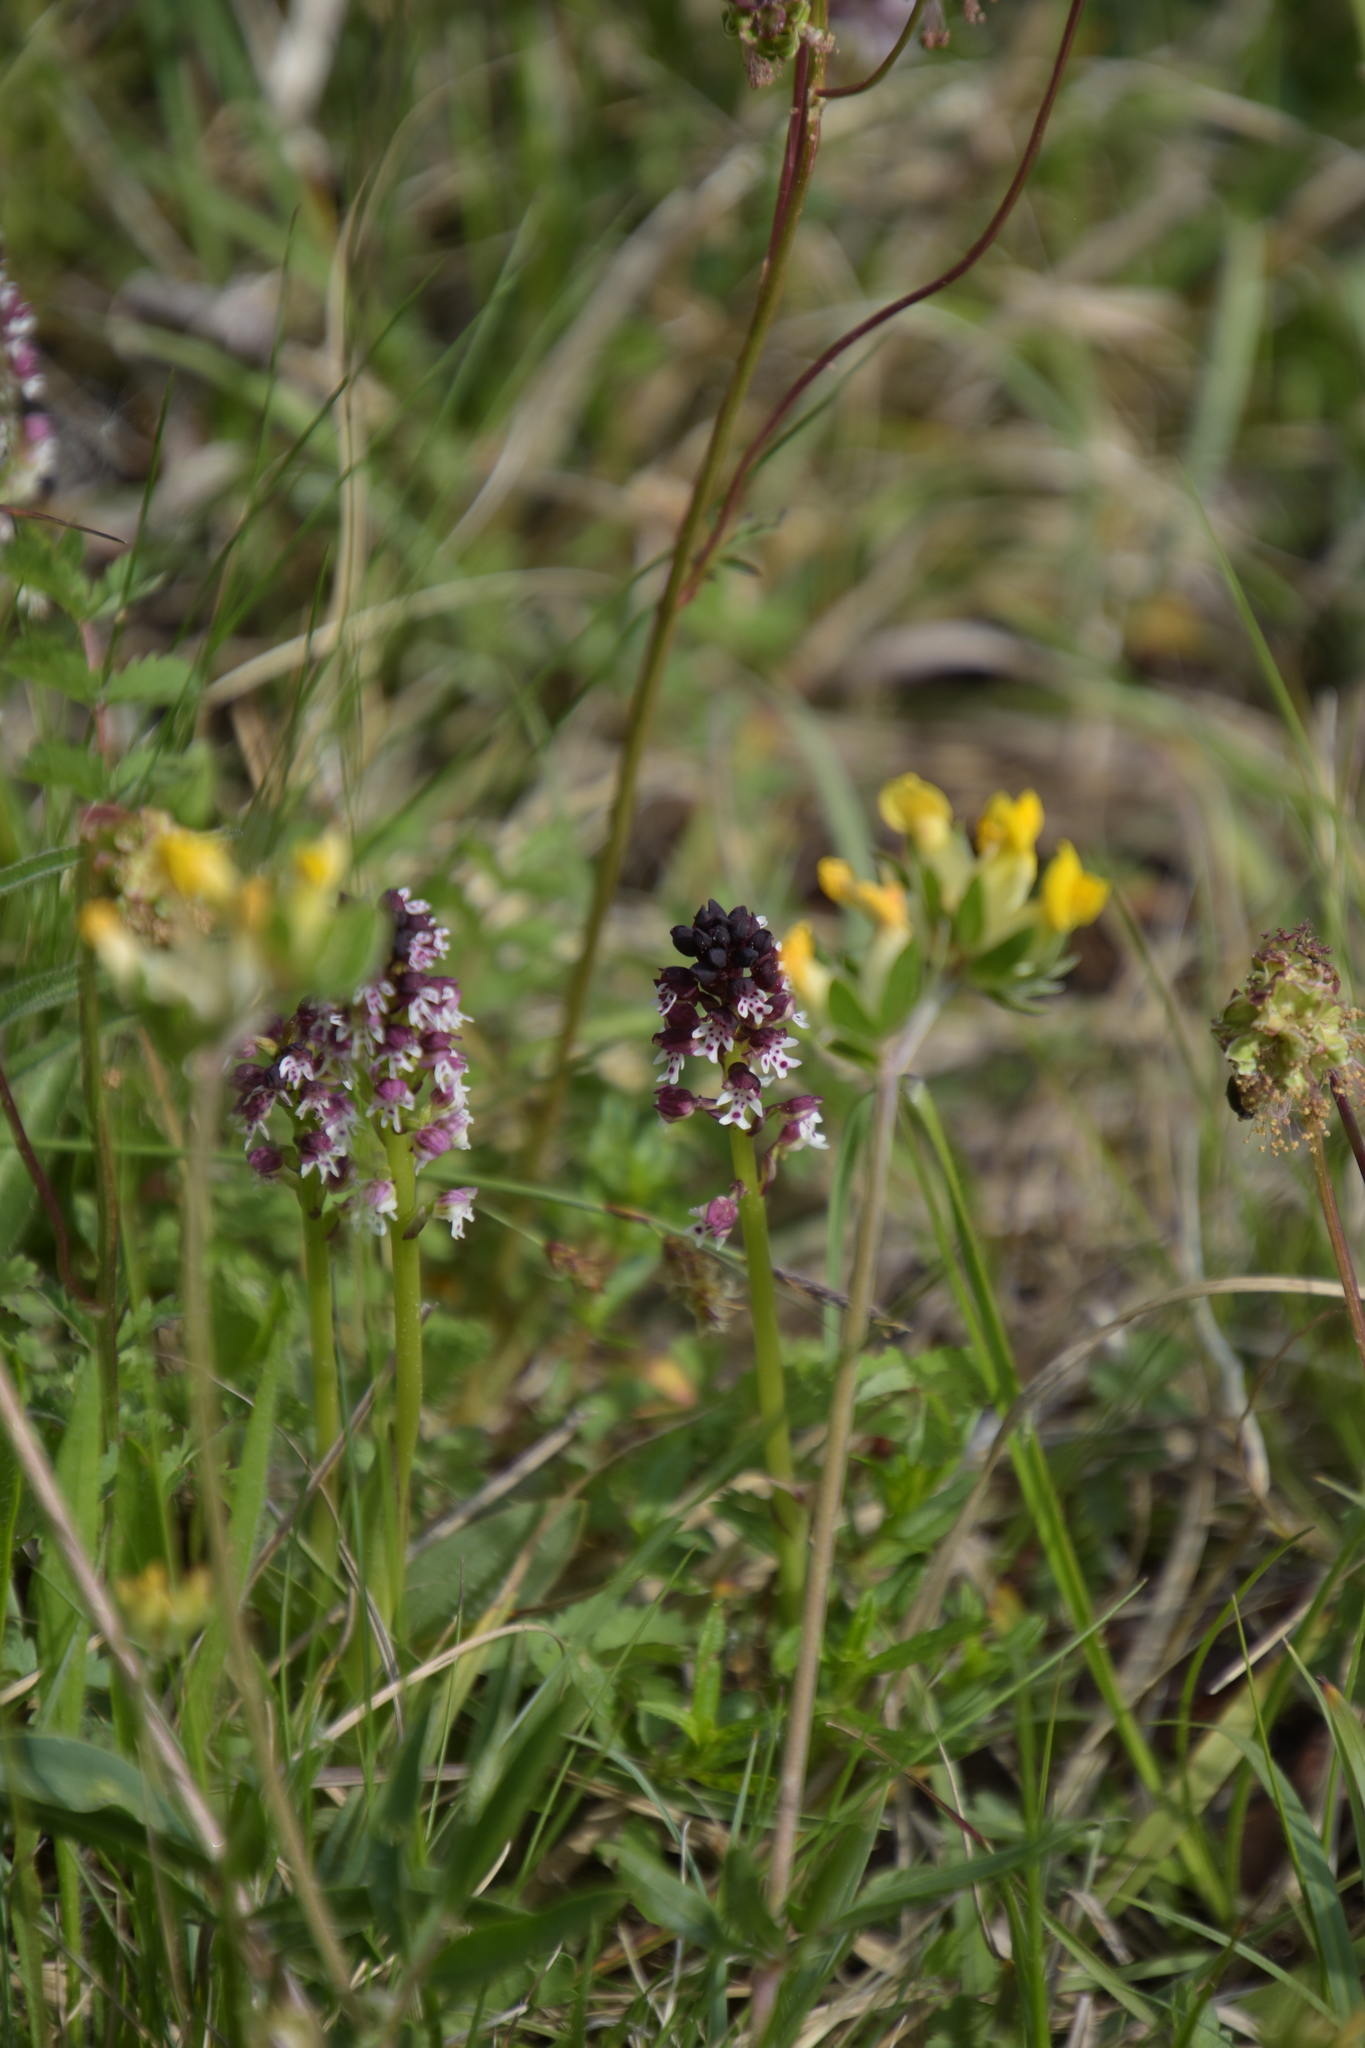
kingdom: Plantae
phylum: Tracheophyta
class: Liliopsida
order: Asparagales
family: Orchidaceae
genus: Neotinea
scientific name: Neotinea ustulata
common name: Burnt orchid
